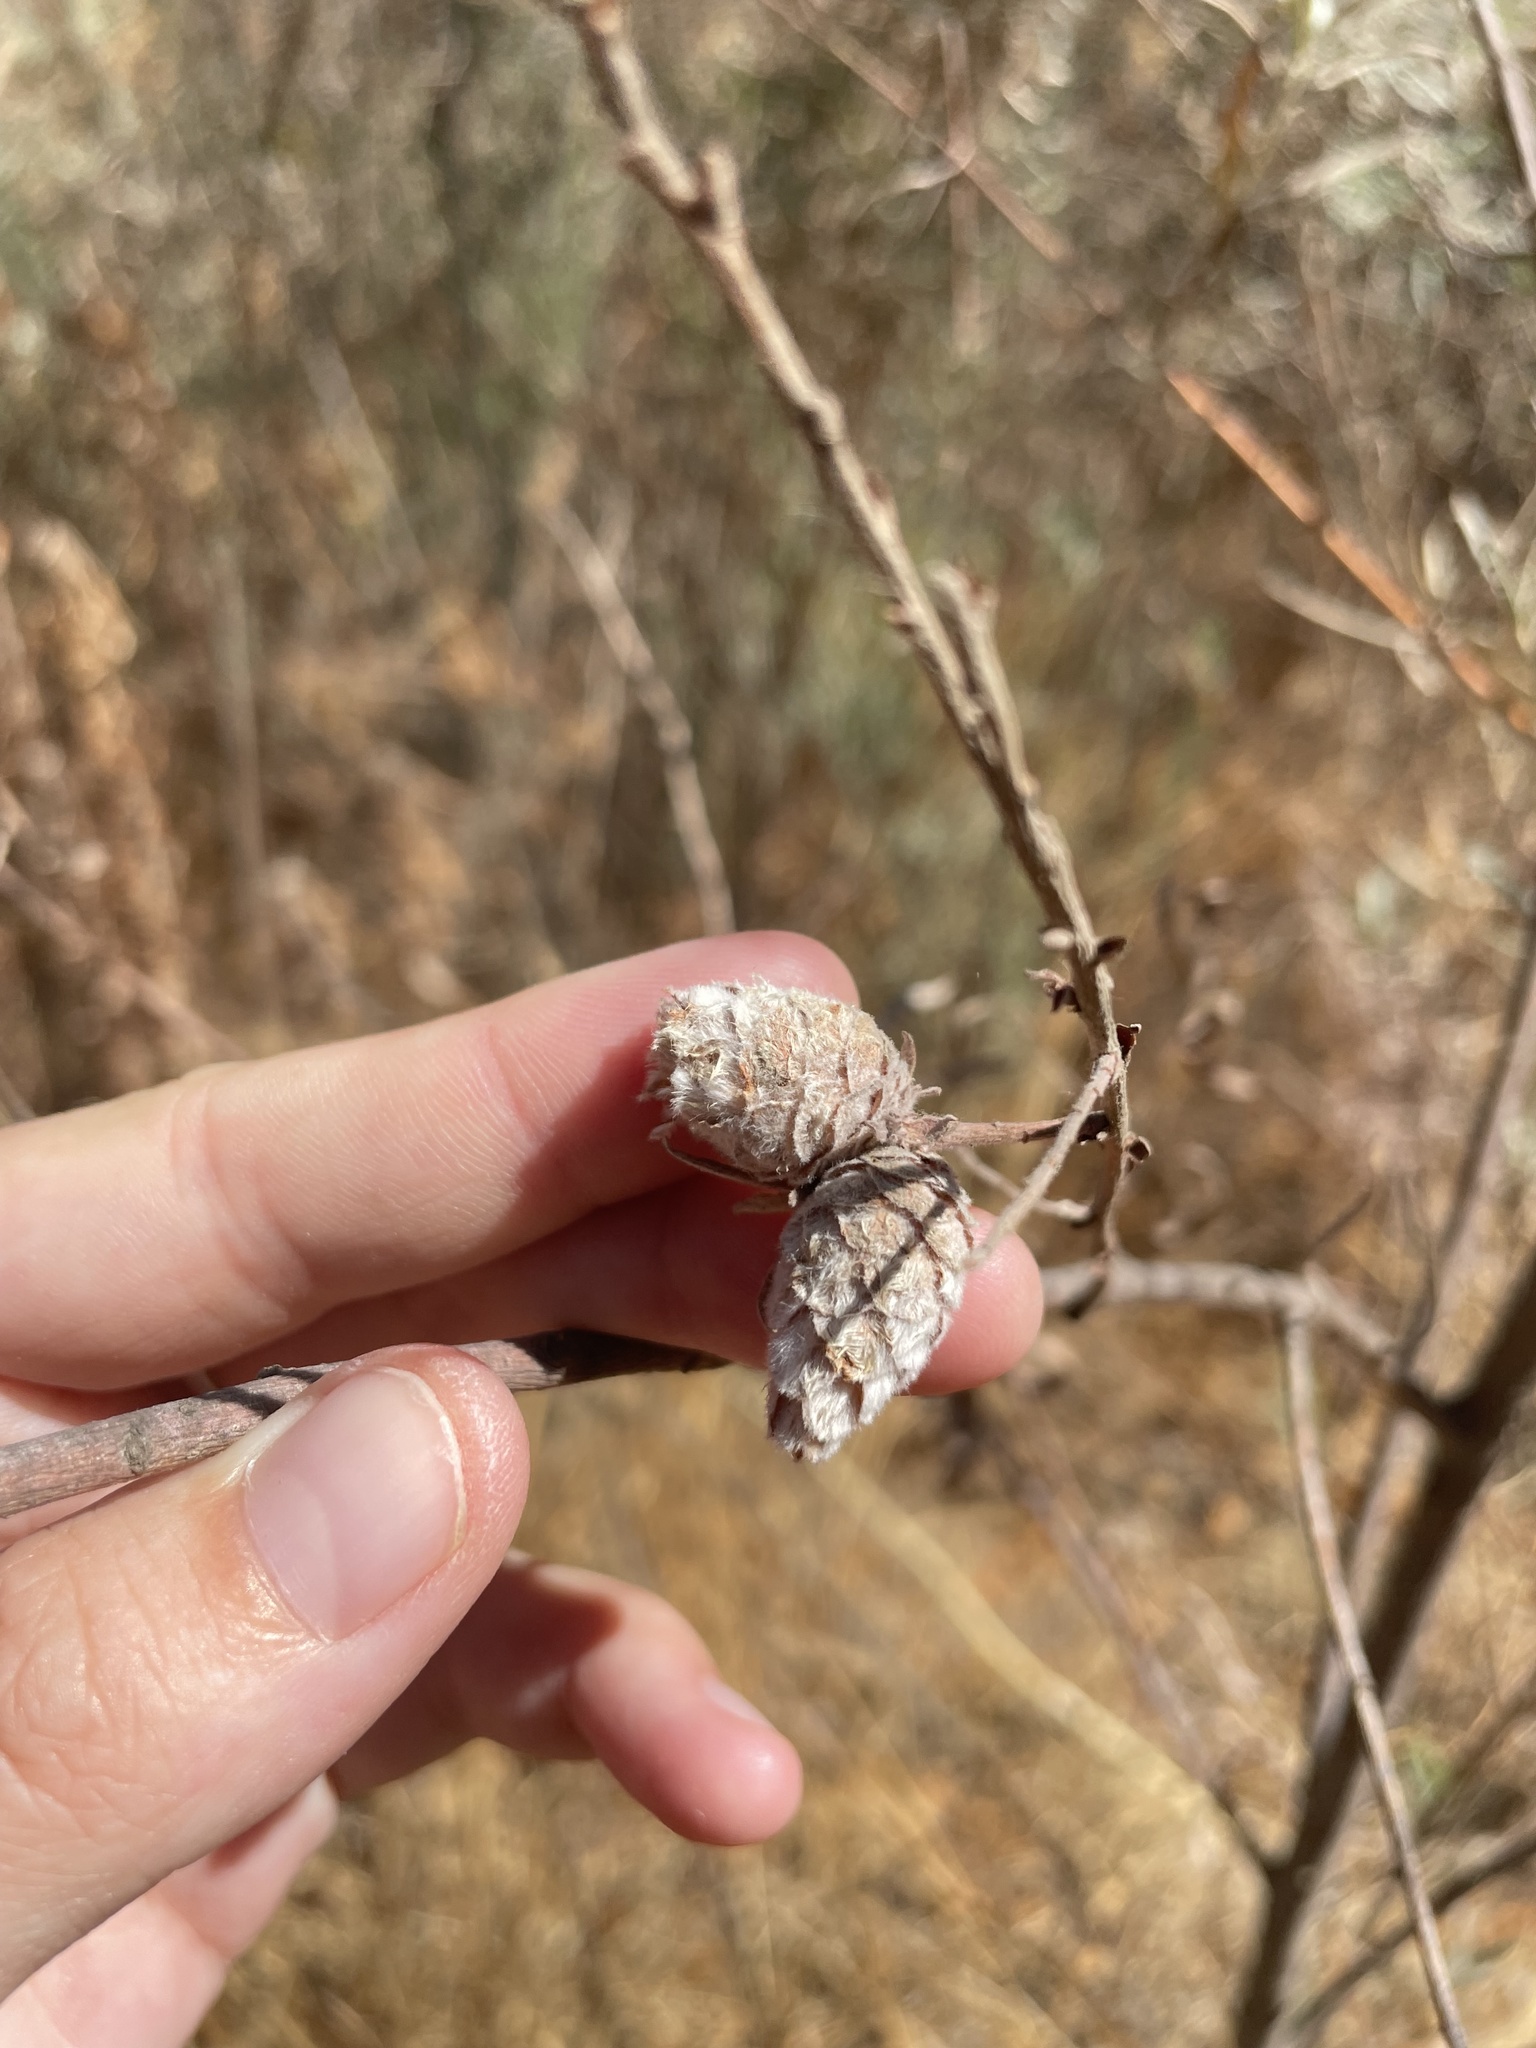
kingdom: Animalia
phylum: Arthropoda
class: Insecta
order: Diptera
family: Cecidomyiidae
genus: Rabdophaga
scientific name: Rabdophaga strobiloides
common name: Willow pinecone gall midge
